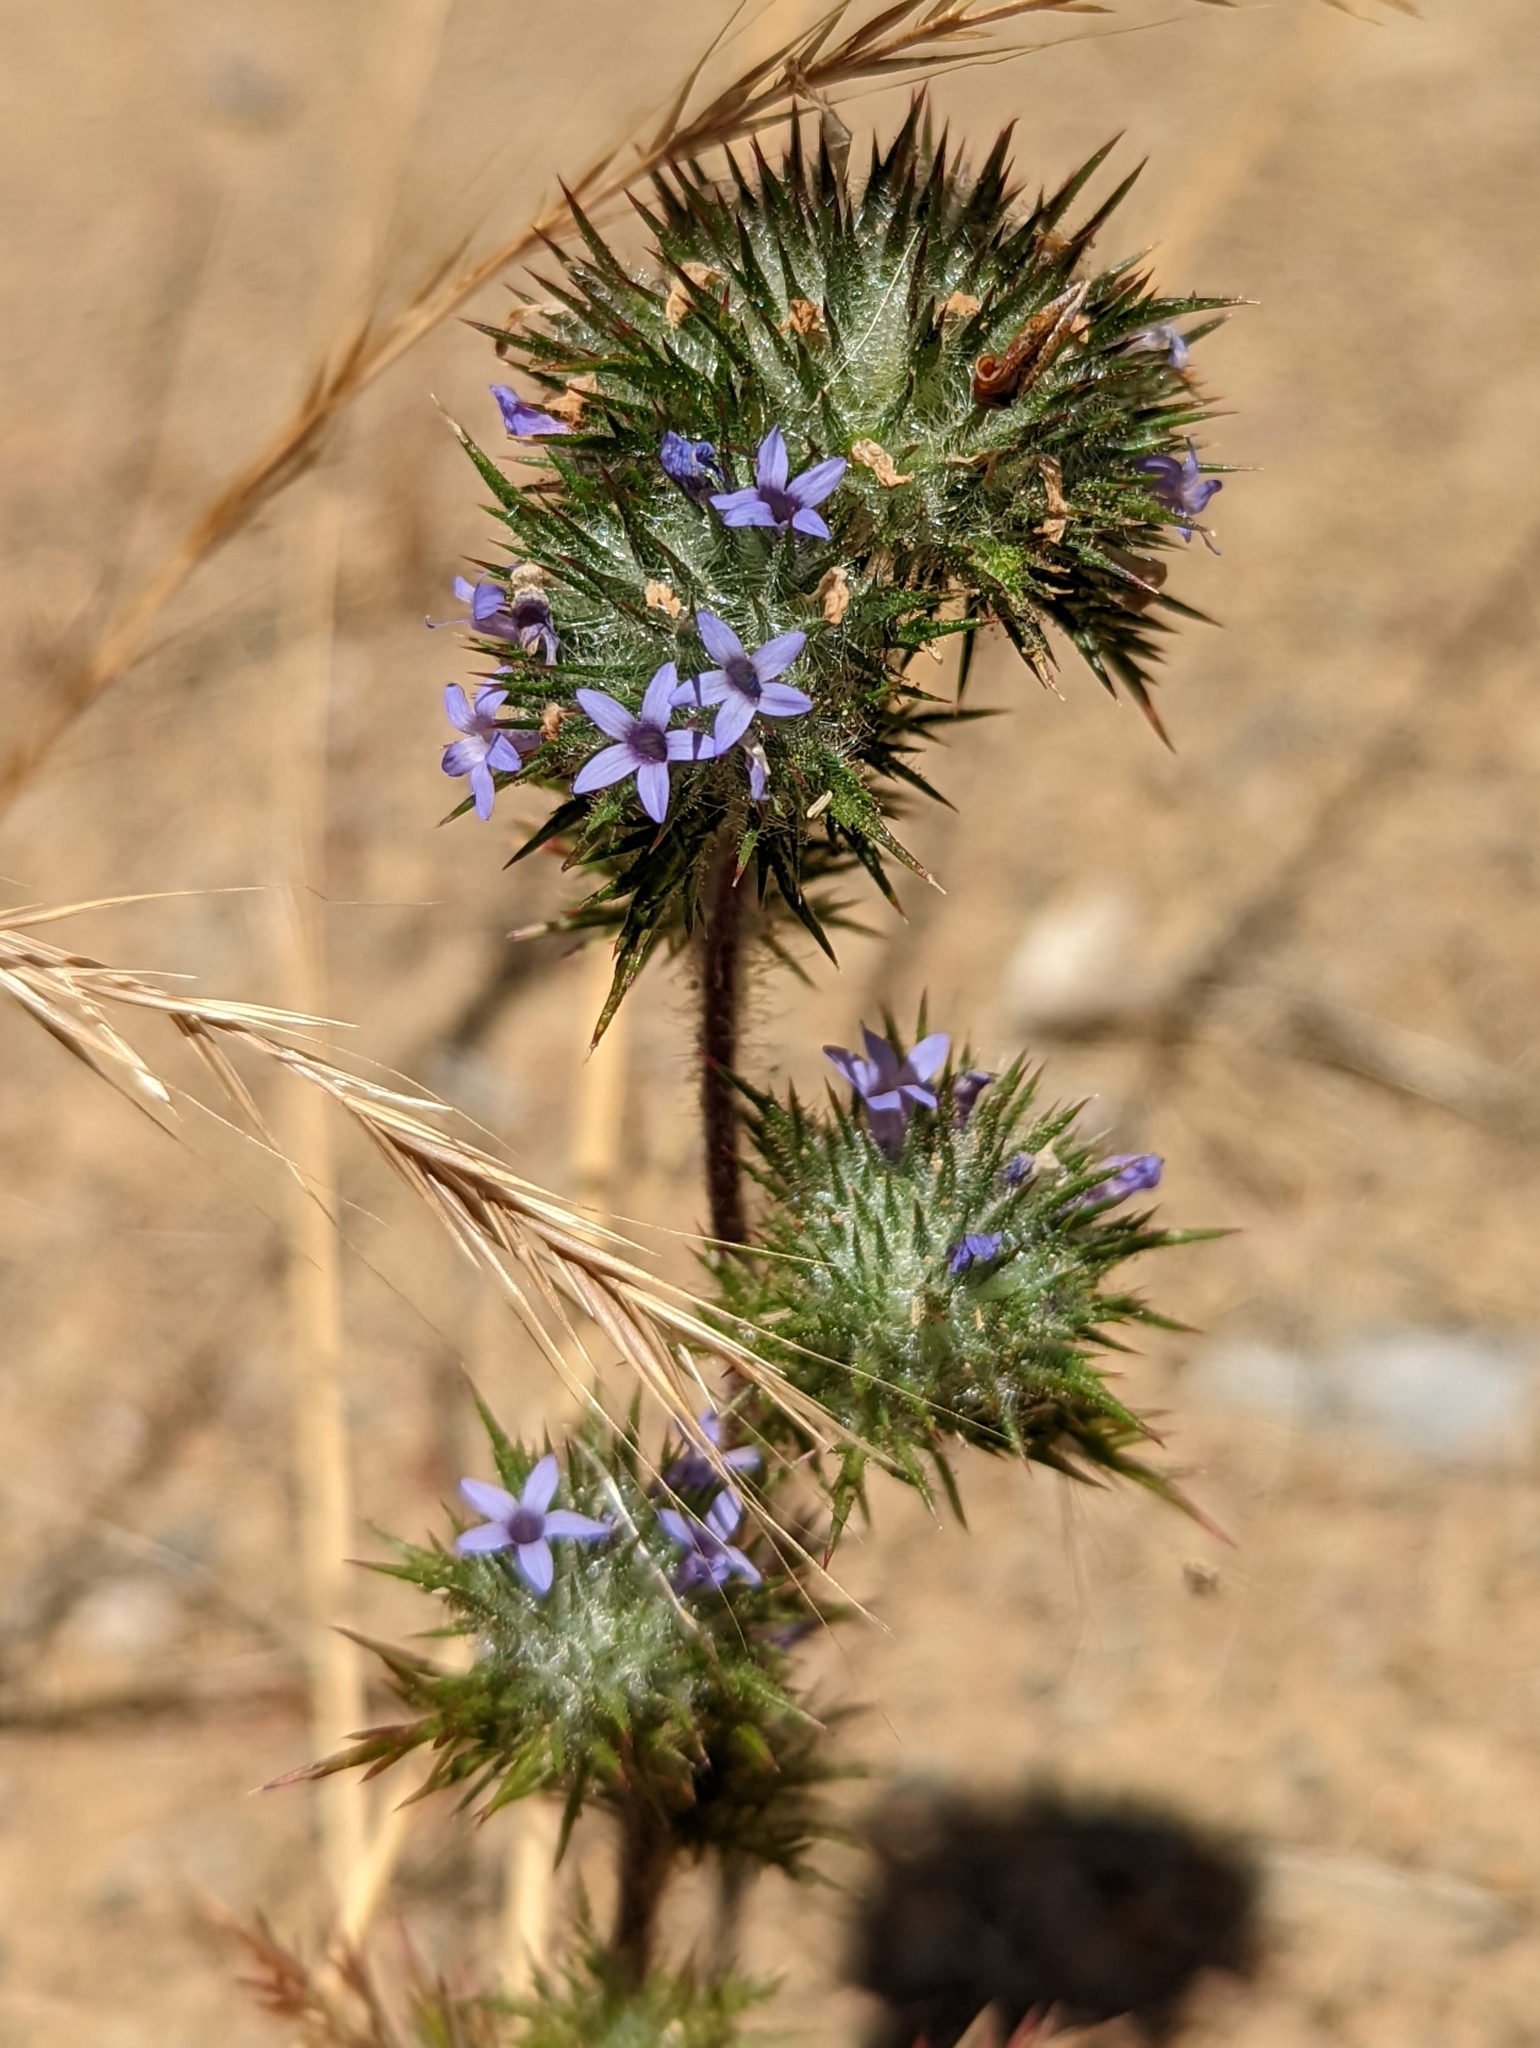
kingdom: Plantae
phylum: Tracheophyta
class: Magnoliopsida
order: Ericales
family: Polemoniaceae
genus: Navarretia
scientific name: Navarretia squarrosa
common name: Skunkweed
